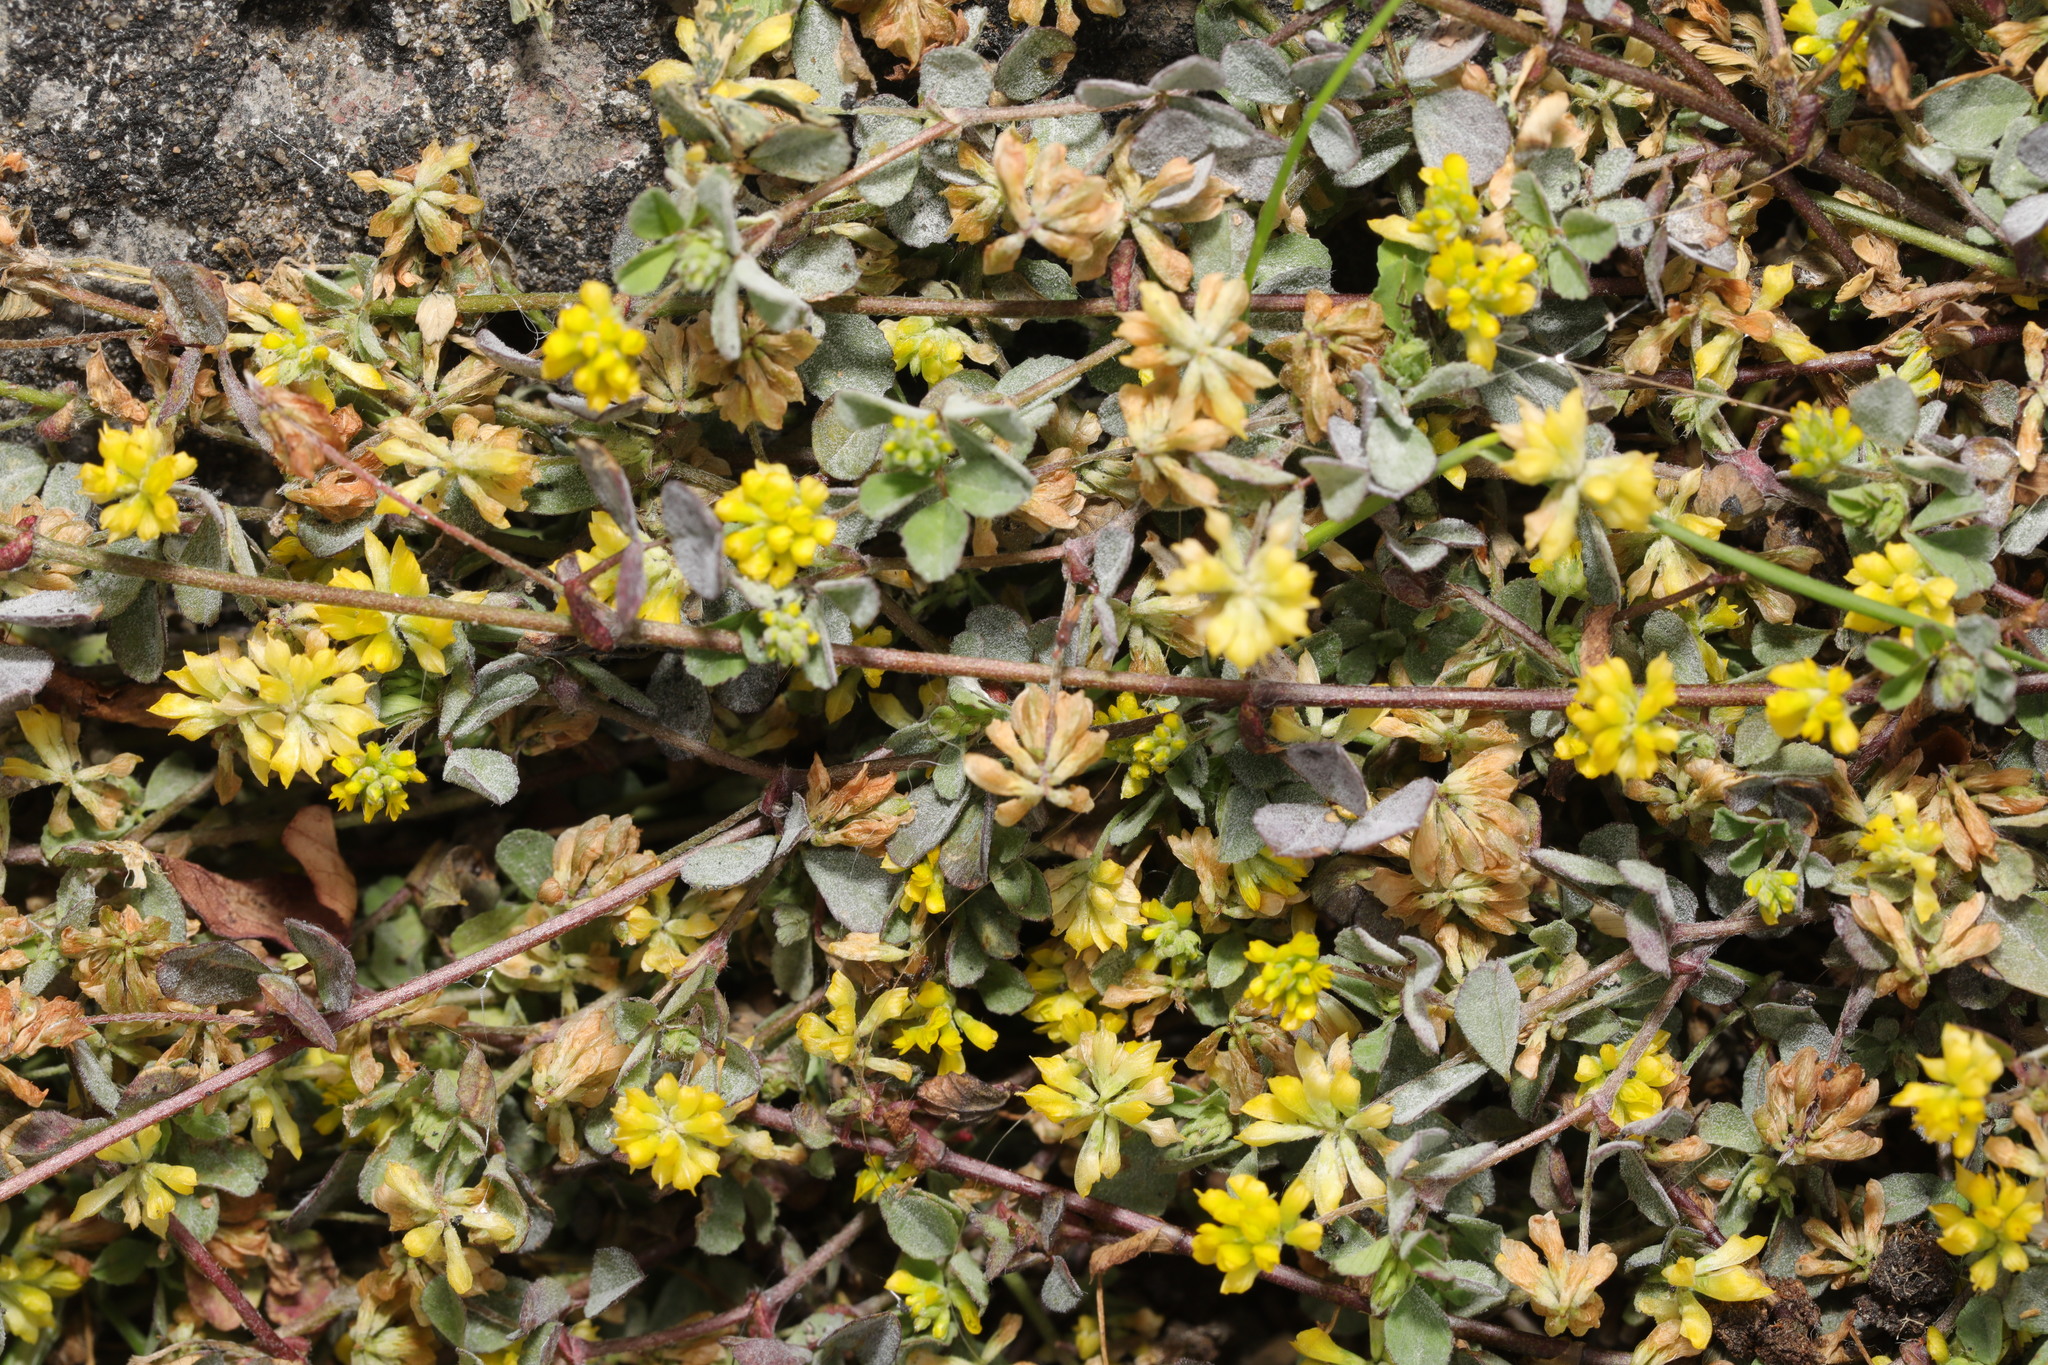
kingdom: Plantae
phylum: Tracheophyta
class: Magnoliopsida
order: Fabales
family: Fabaceae
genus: Trifolium
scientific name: Trifolium dubium
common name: Suckling clover
